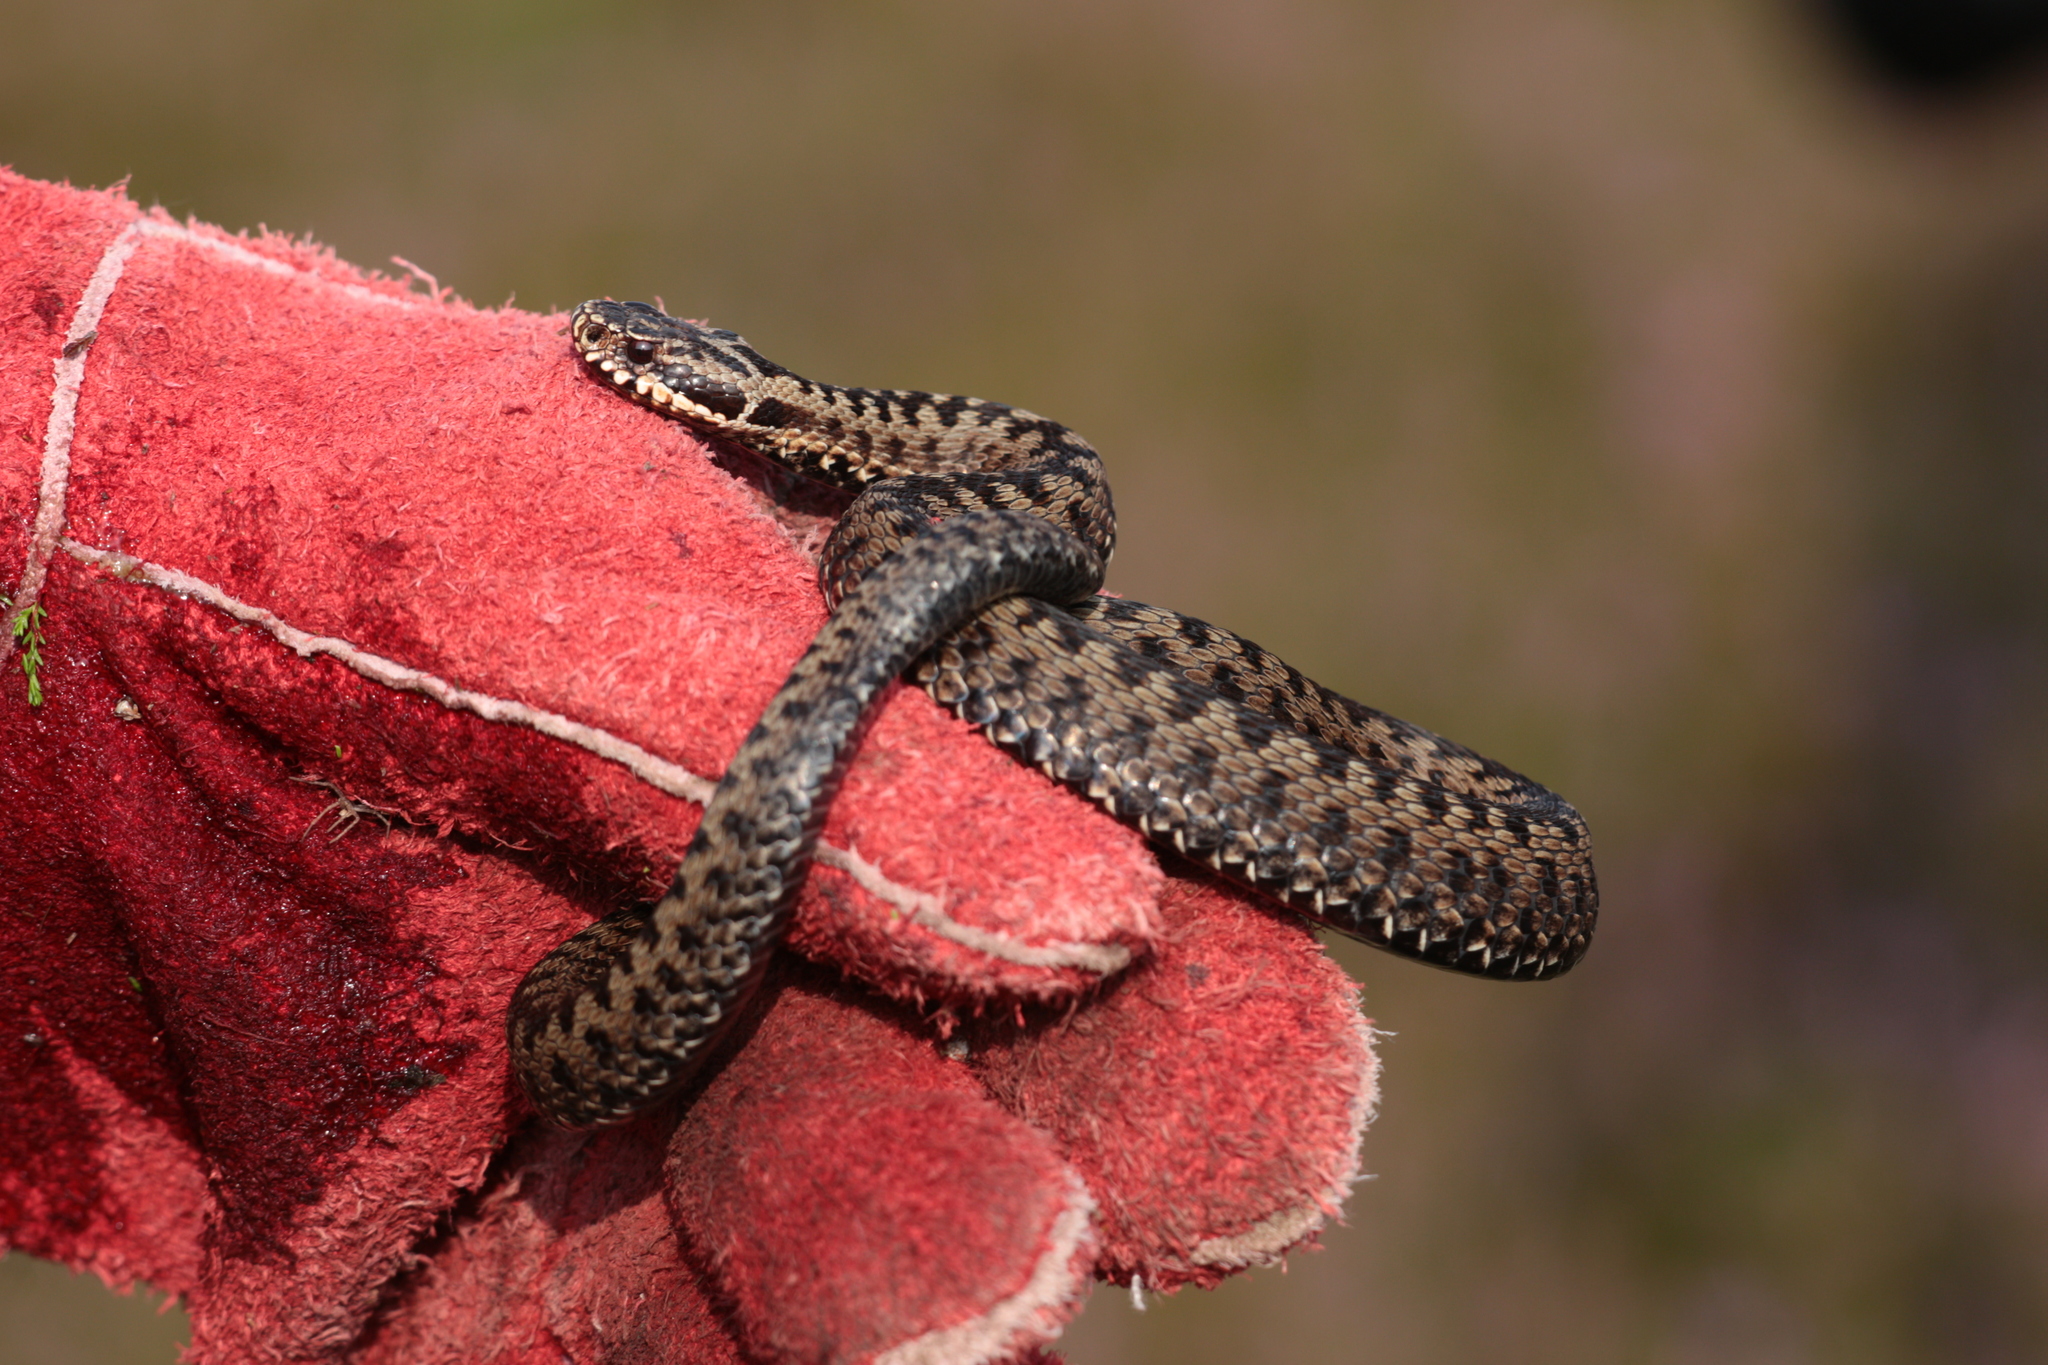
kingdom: Animalia
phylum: Chordata
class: Squamata
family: Viperidae
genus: Vipera
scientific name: Vipera berus
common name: Adder
